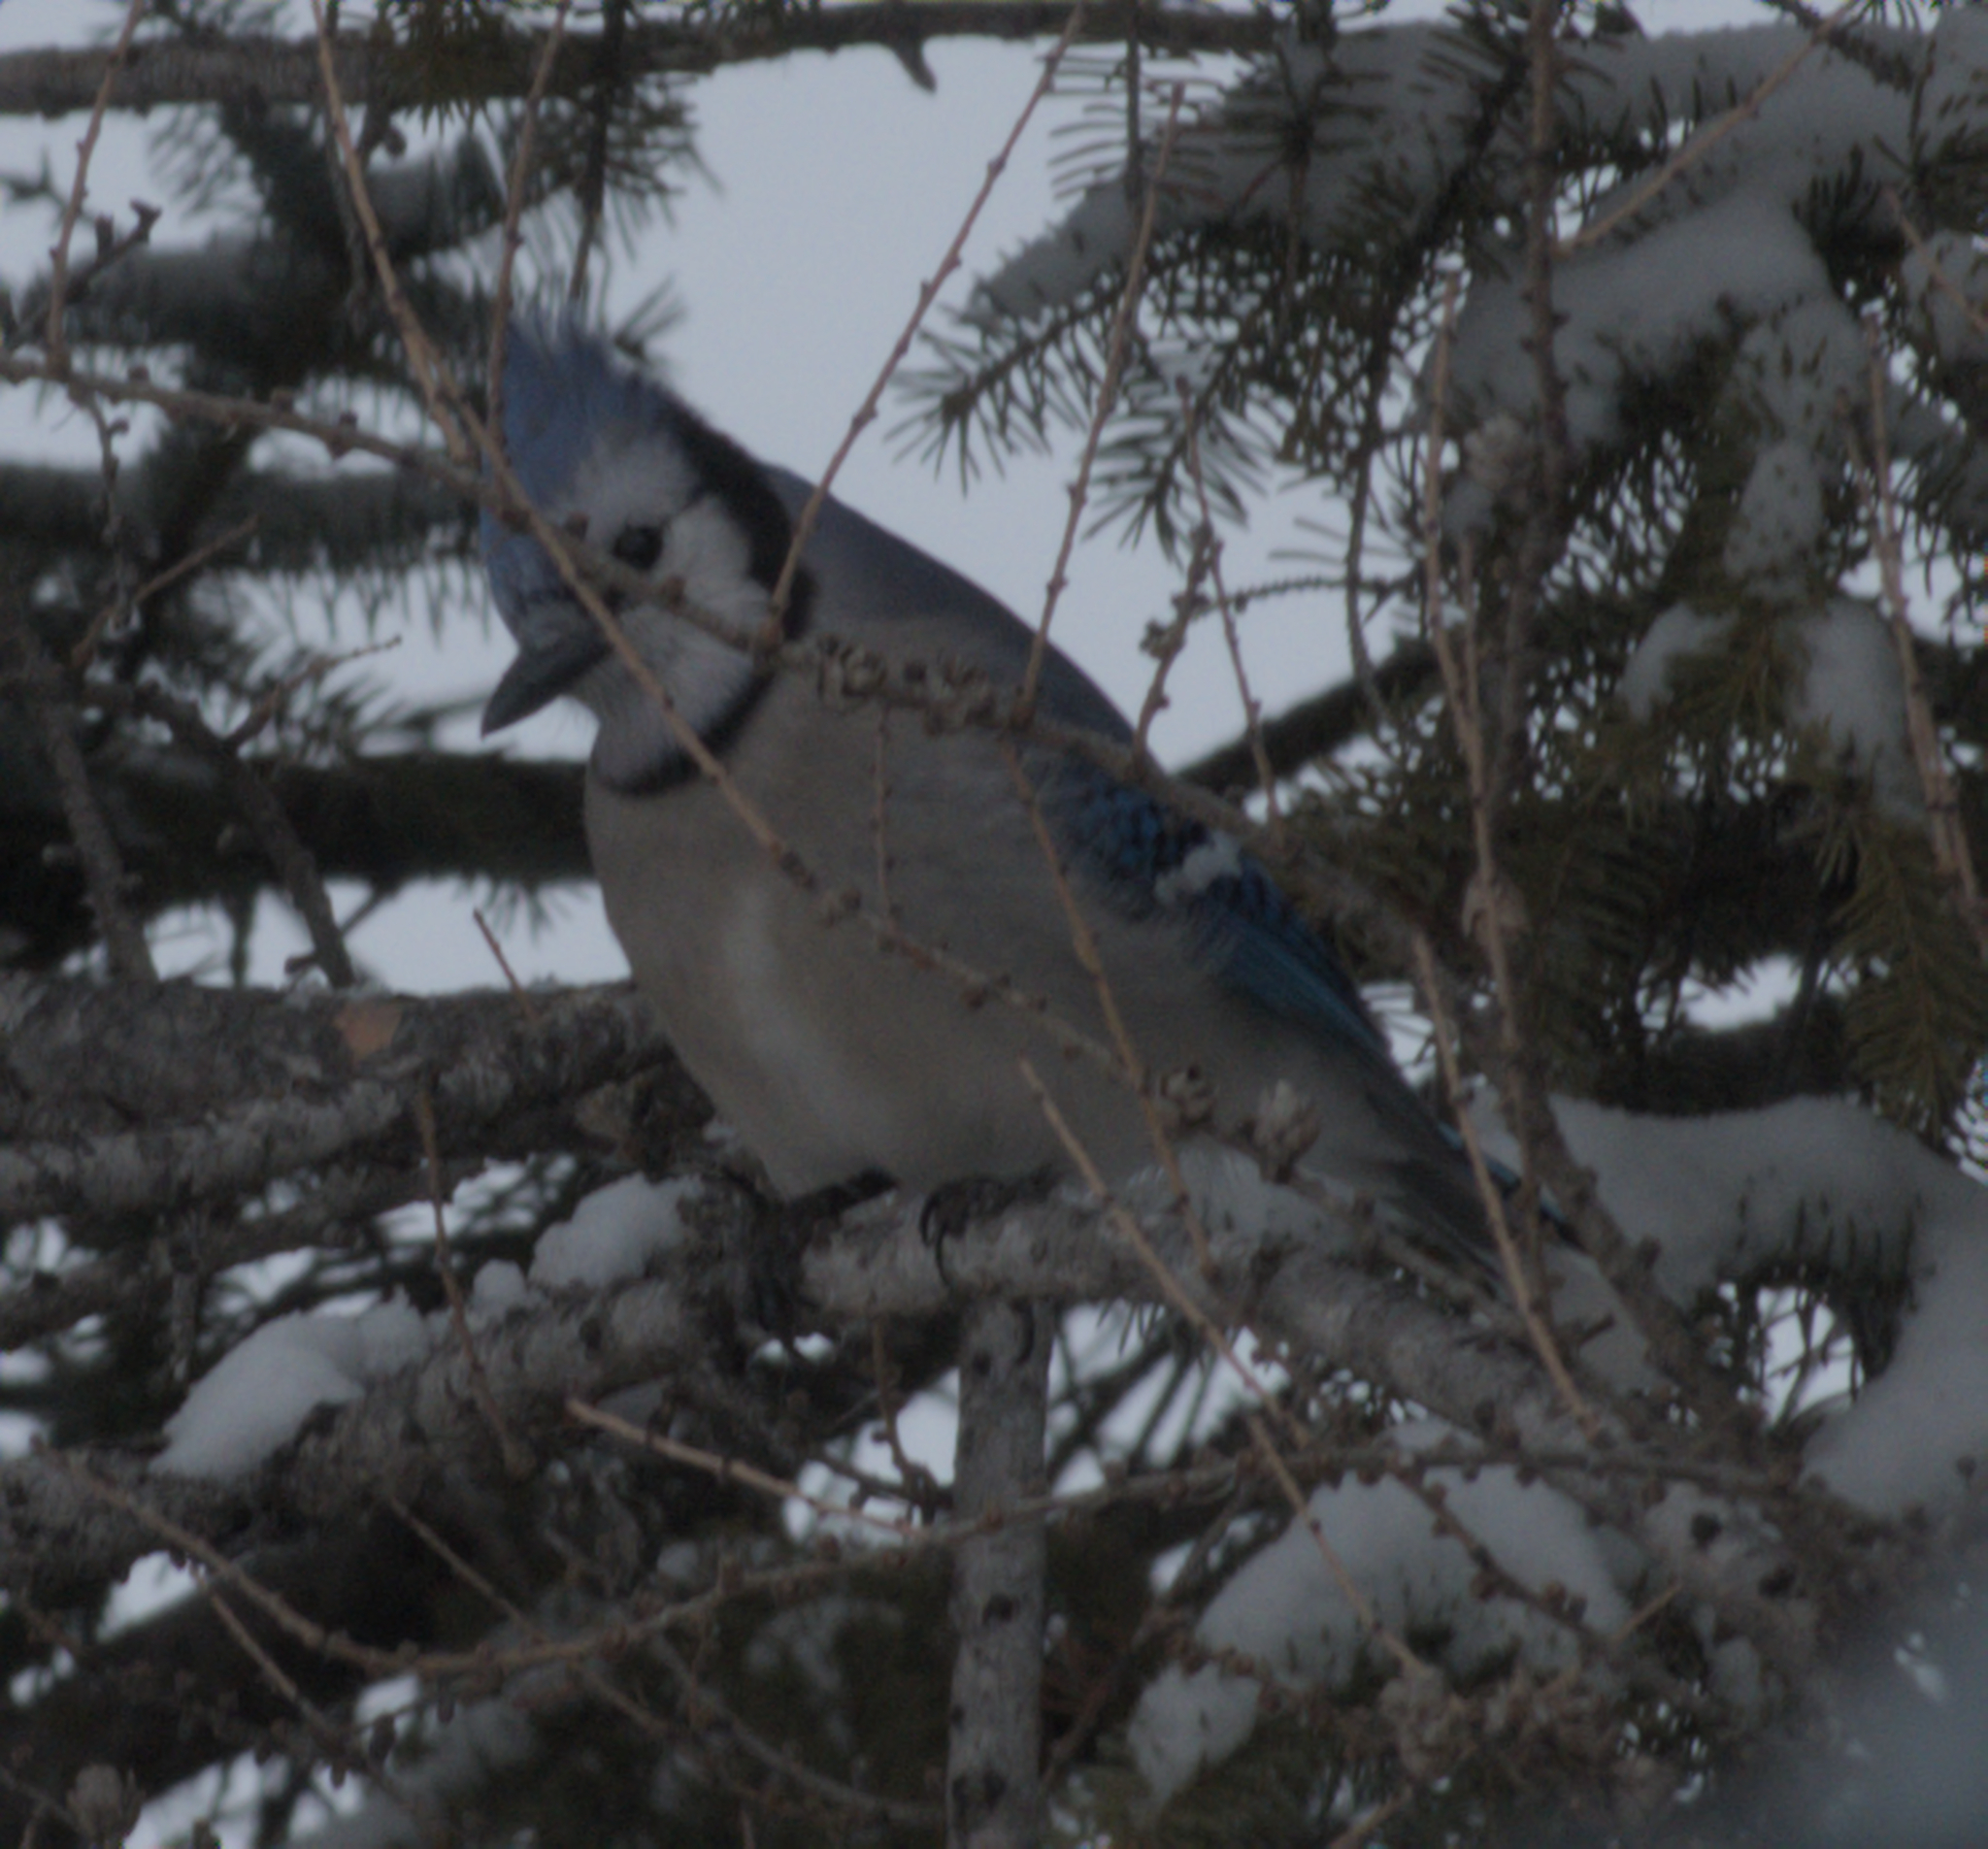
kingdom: Animalia
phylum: Chordata
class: Aves
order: Passeriformes
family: Corvidae
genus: Cyanocitta
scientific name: Cyanocitta cristata
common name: Blue jay
